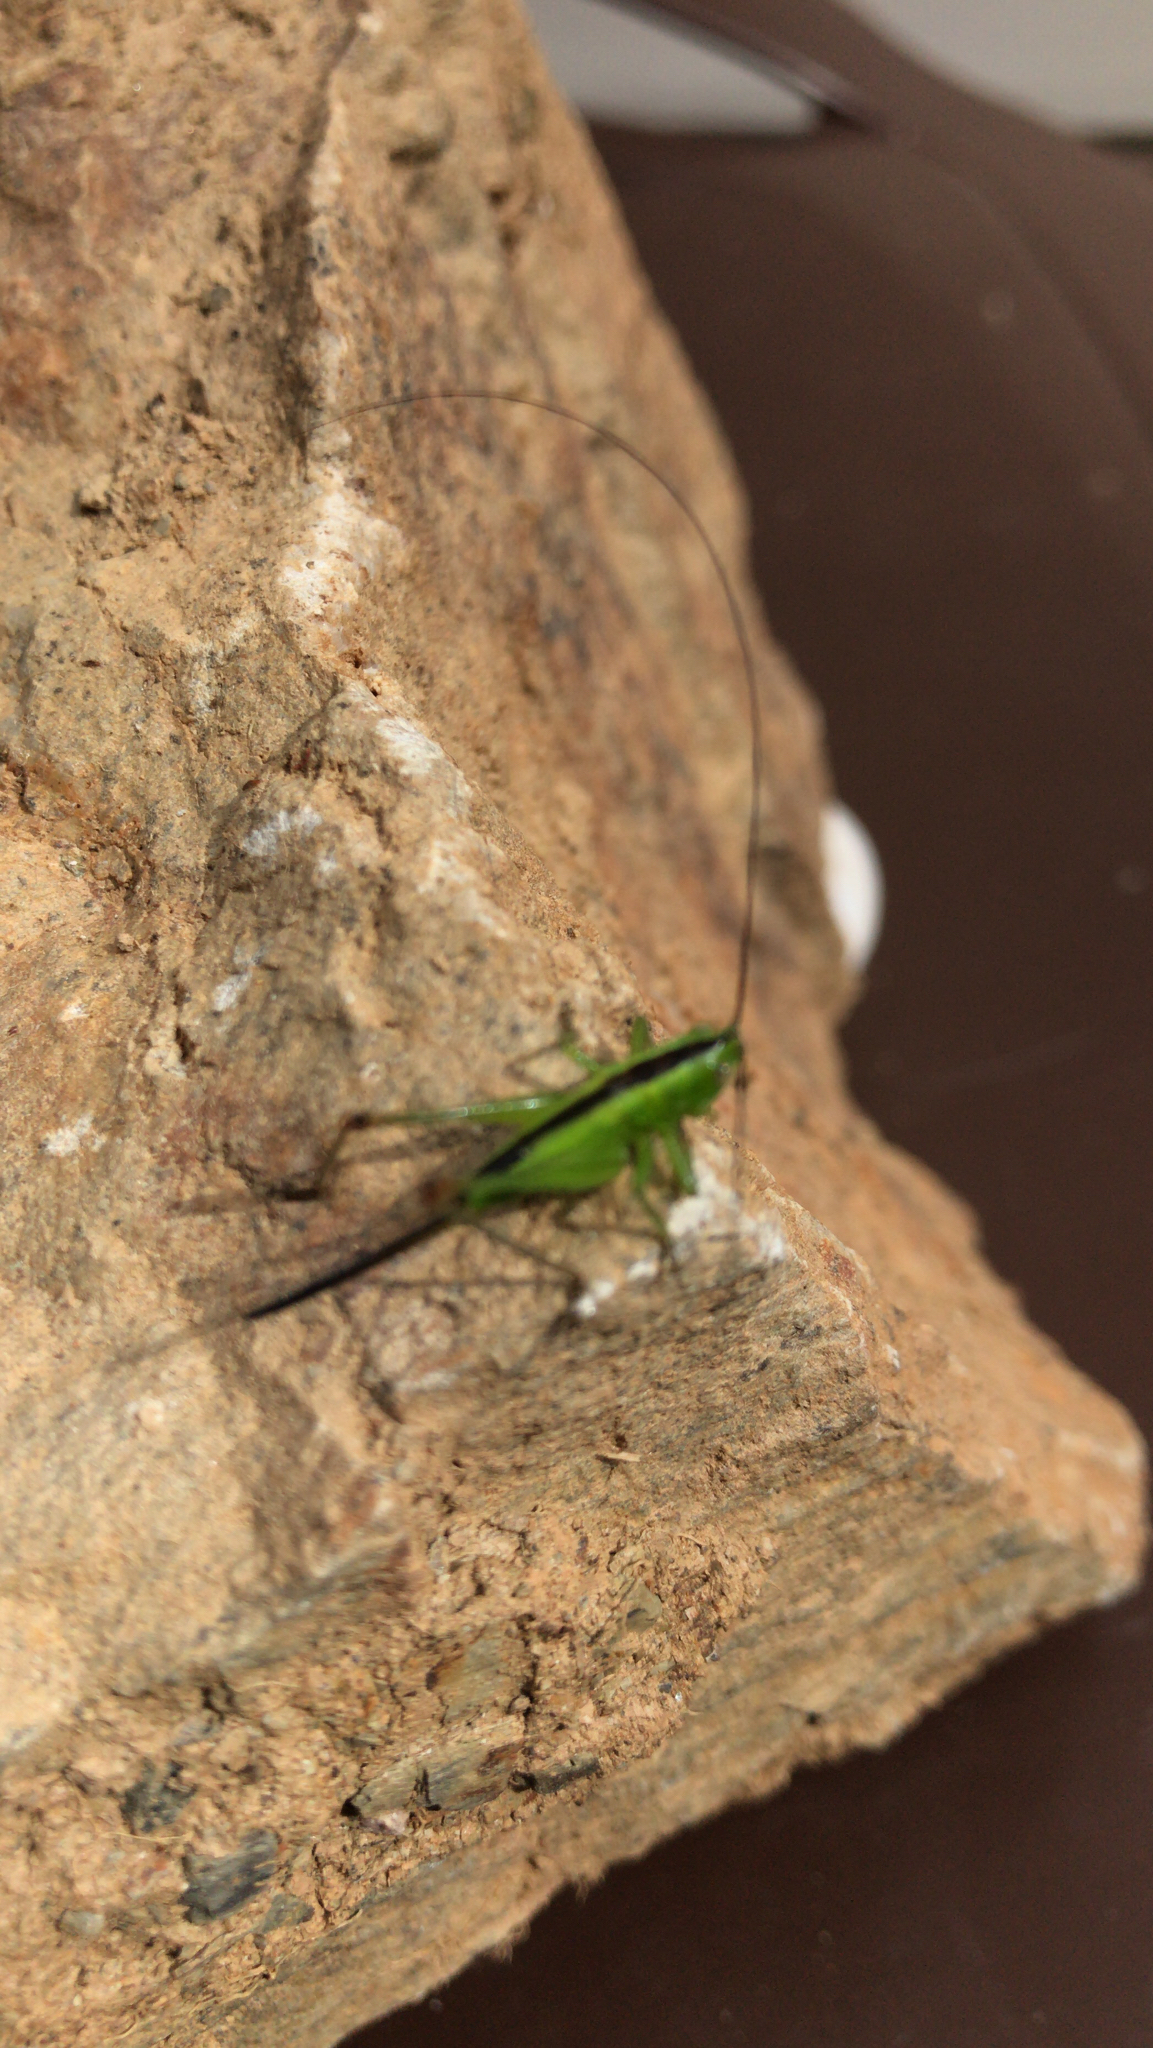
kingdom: Animalia
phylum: Arthropoda
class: Insecta
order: Orthoptera
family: Tettigoniidae
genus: Conocephalus
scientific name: Conocephalus fuscus
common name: Long-winged conehead
